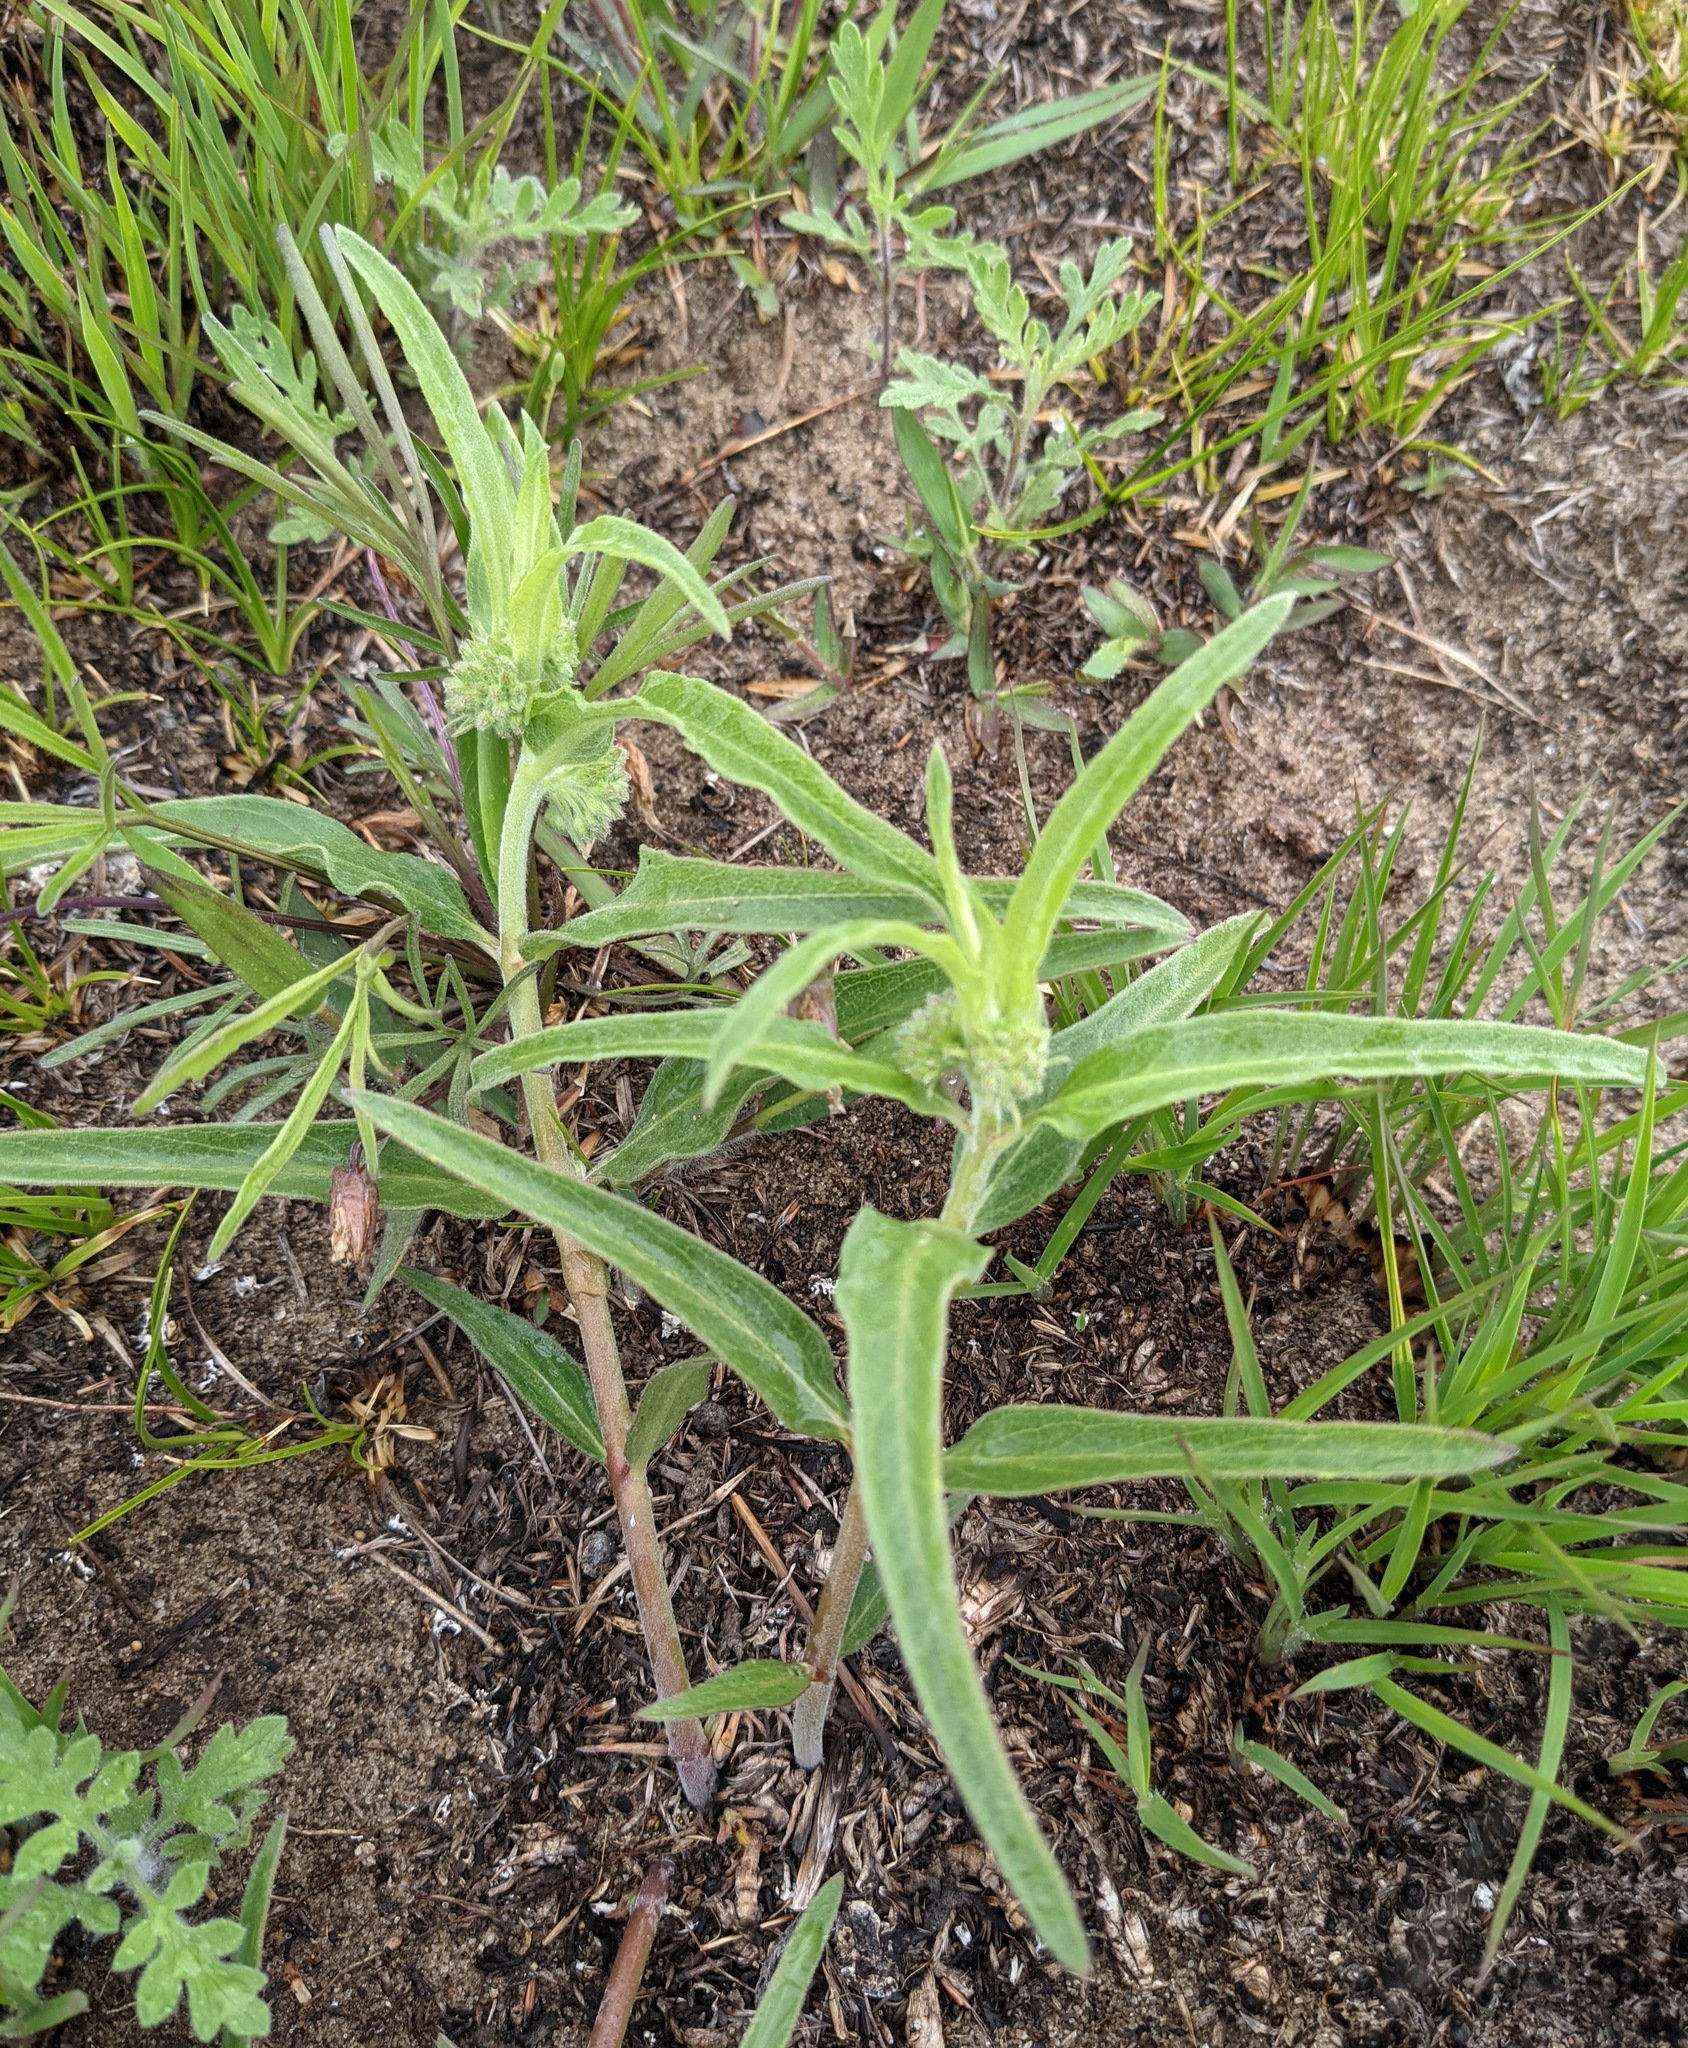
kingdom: Plantae
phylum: Tracheophyta
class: Magnoliopsida
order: Gentianales
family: Apocynaceae
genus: Asclepias
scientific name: Asclepias viridiflora
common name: Green comet milkweed
